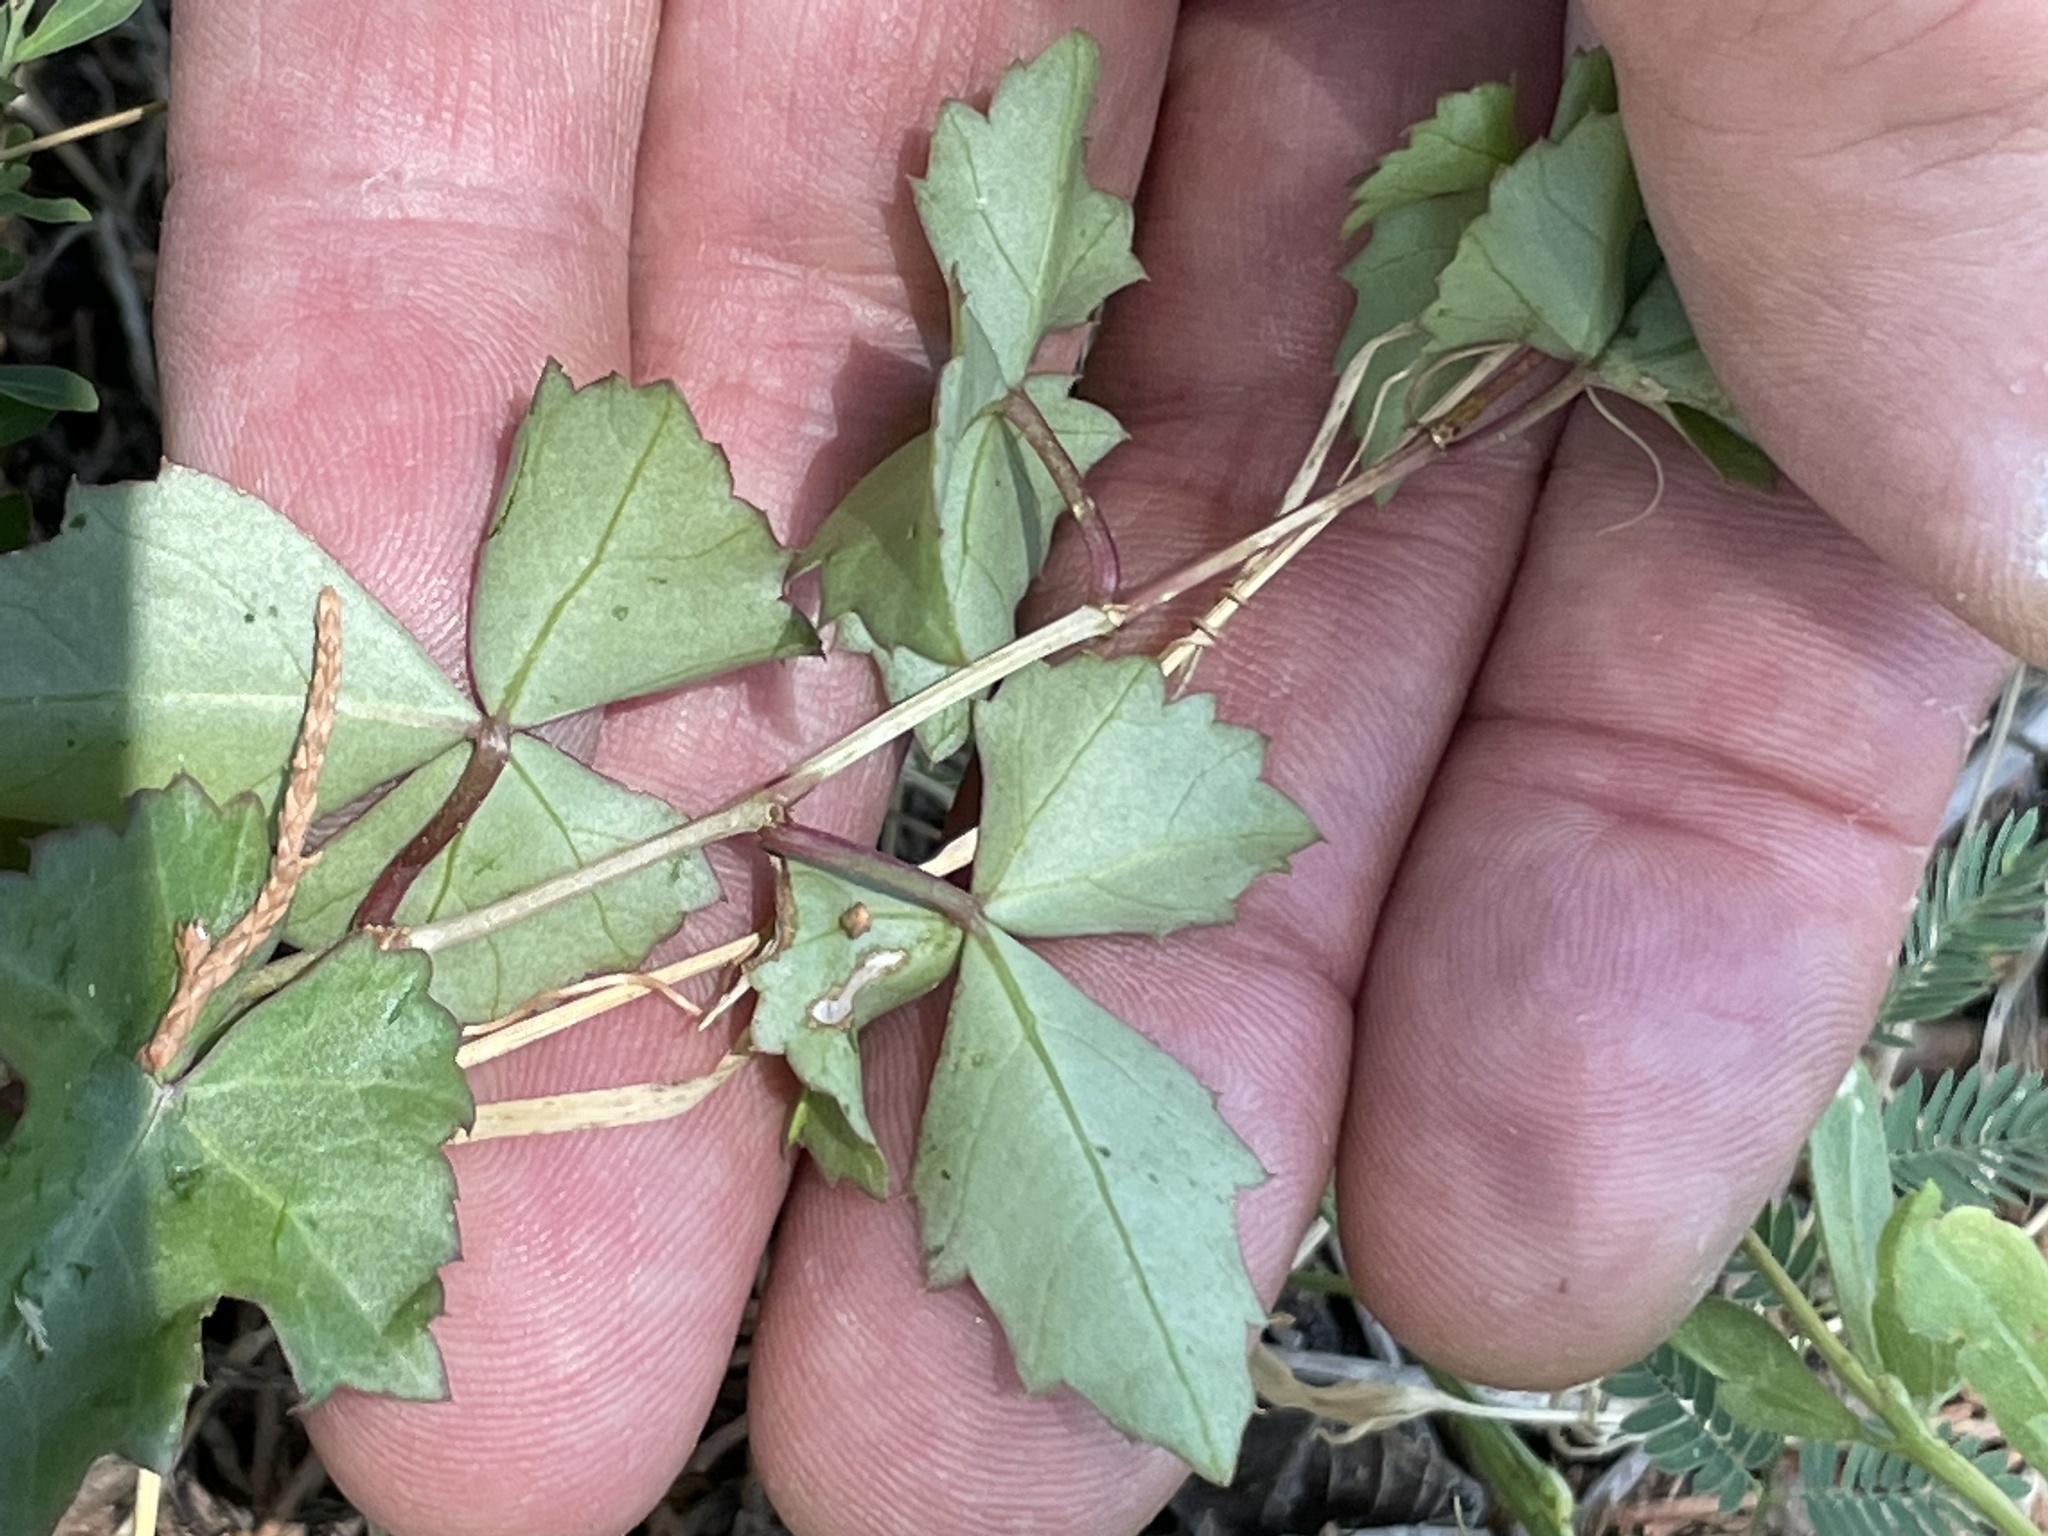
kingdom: Plantae
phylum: Tracheophyta
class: Magnoliopsida
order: Vitales
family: Vitaceae
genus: Cissus
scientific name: Cissus trifoliata
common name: Vine-sorrel
